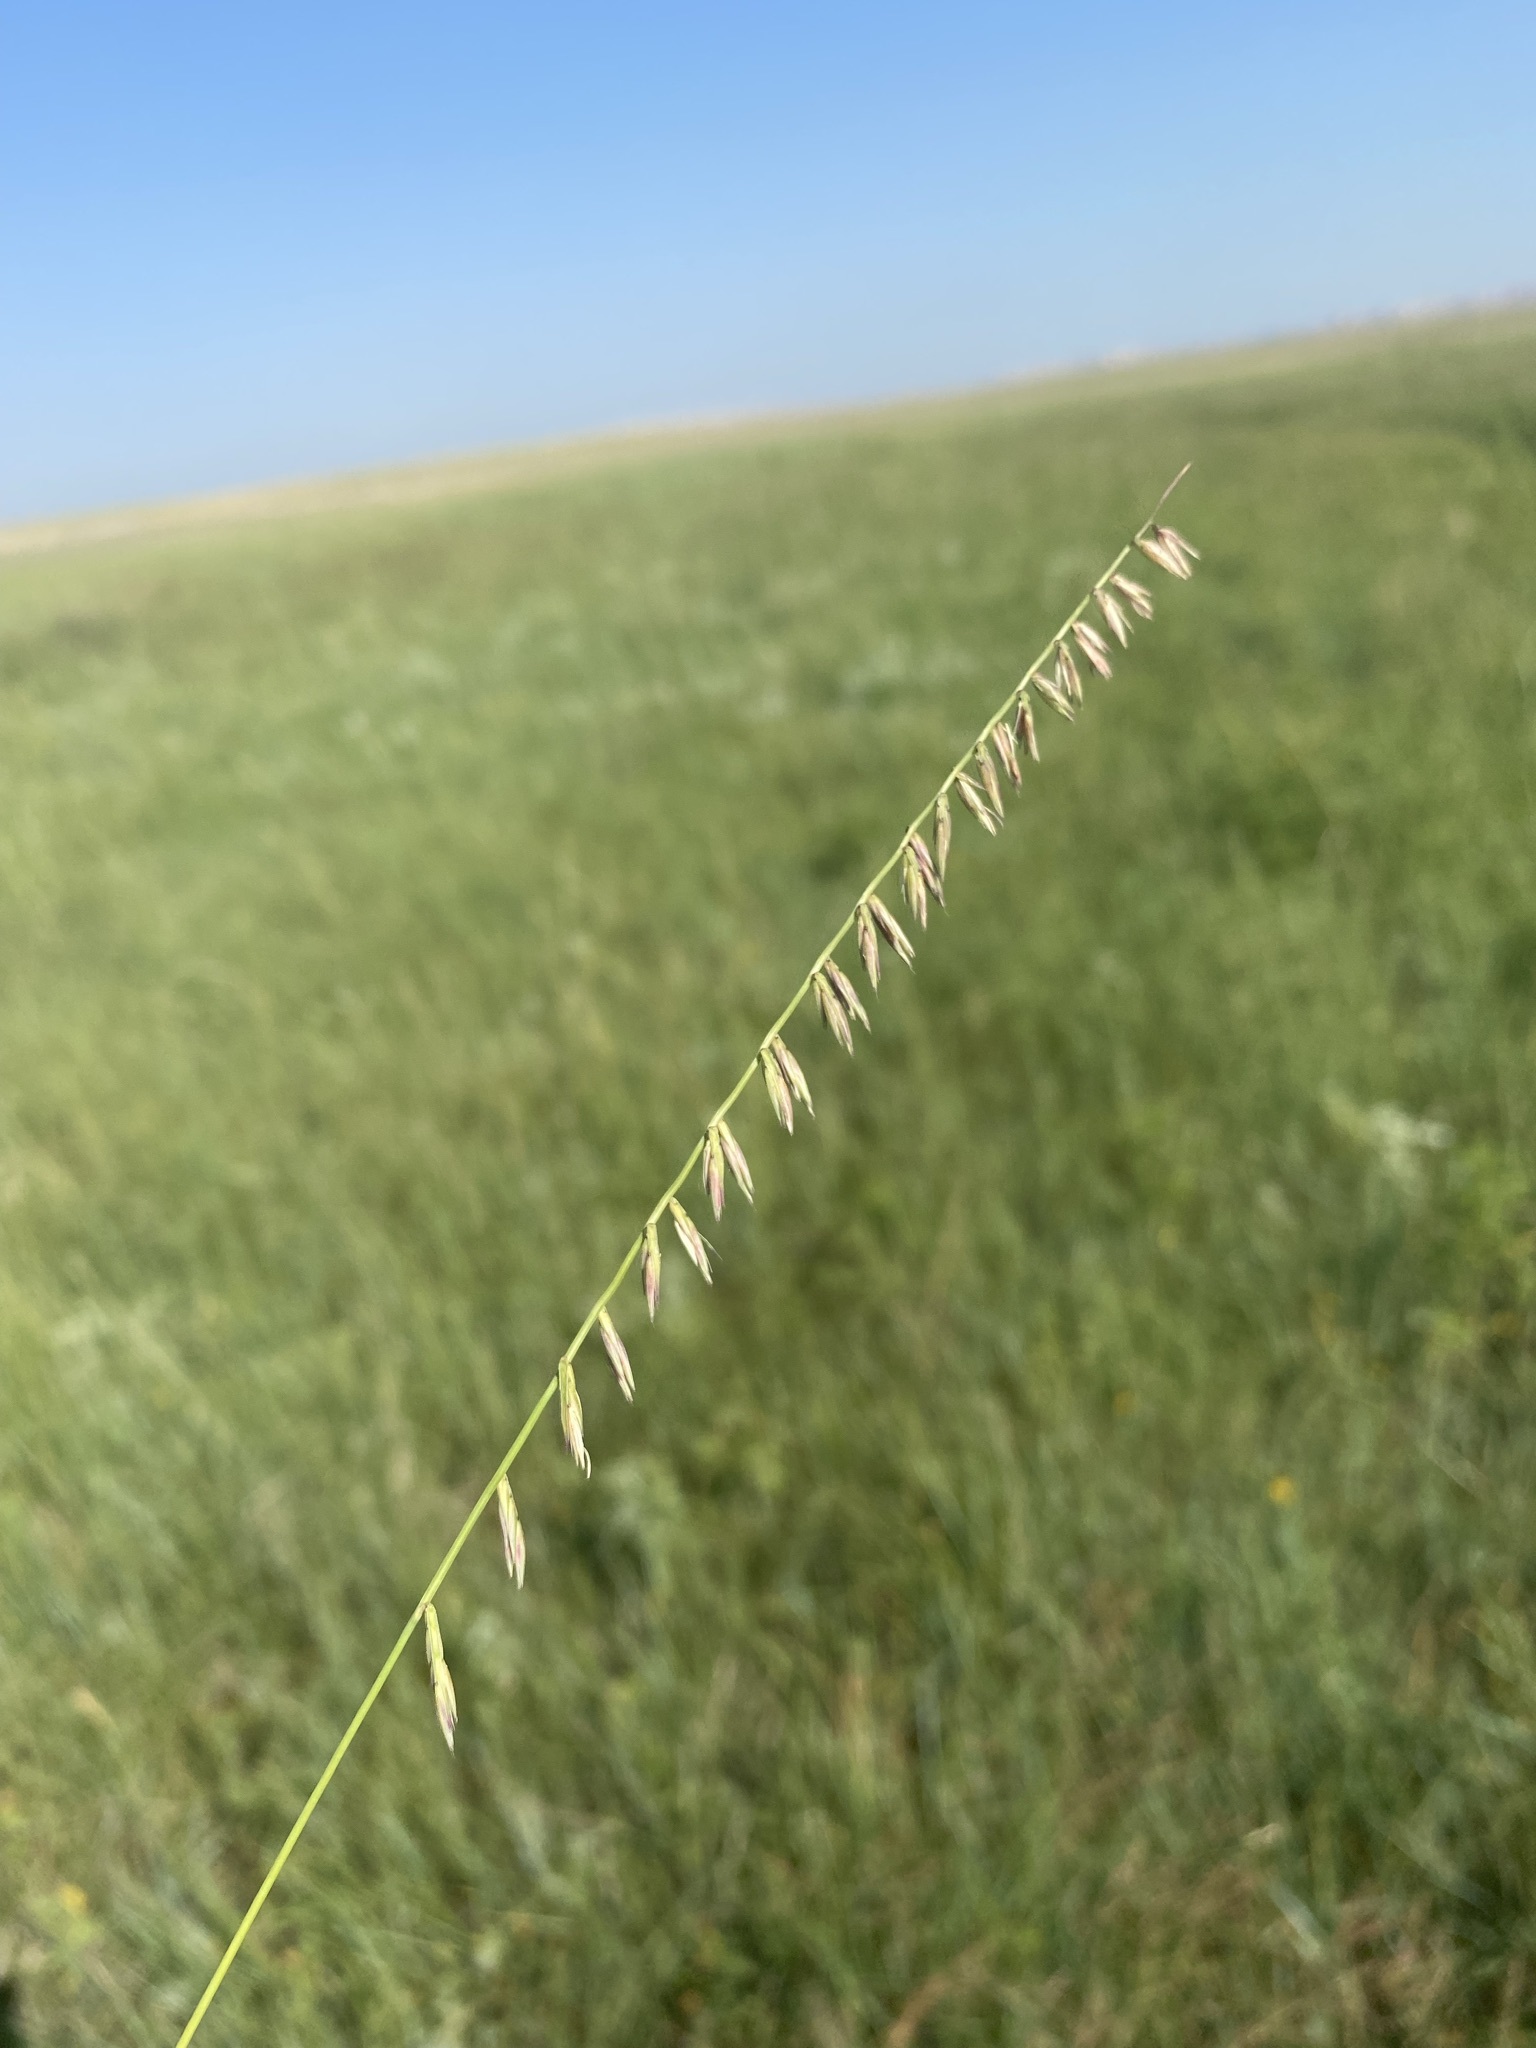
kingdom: Plantae
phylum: Tracheophyta
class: Liliopsida
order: Poales
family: Poaceae
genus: Bouteloua
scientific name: Bouteloua curtipendula
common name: Side-oats grama
